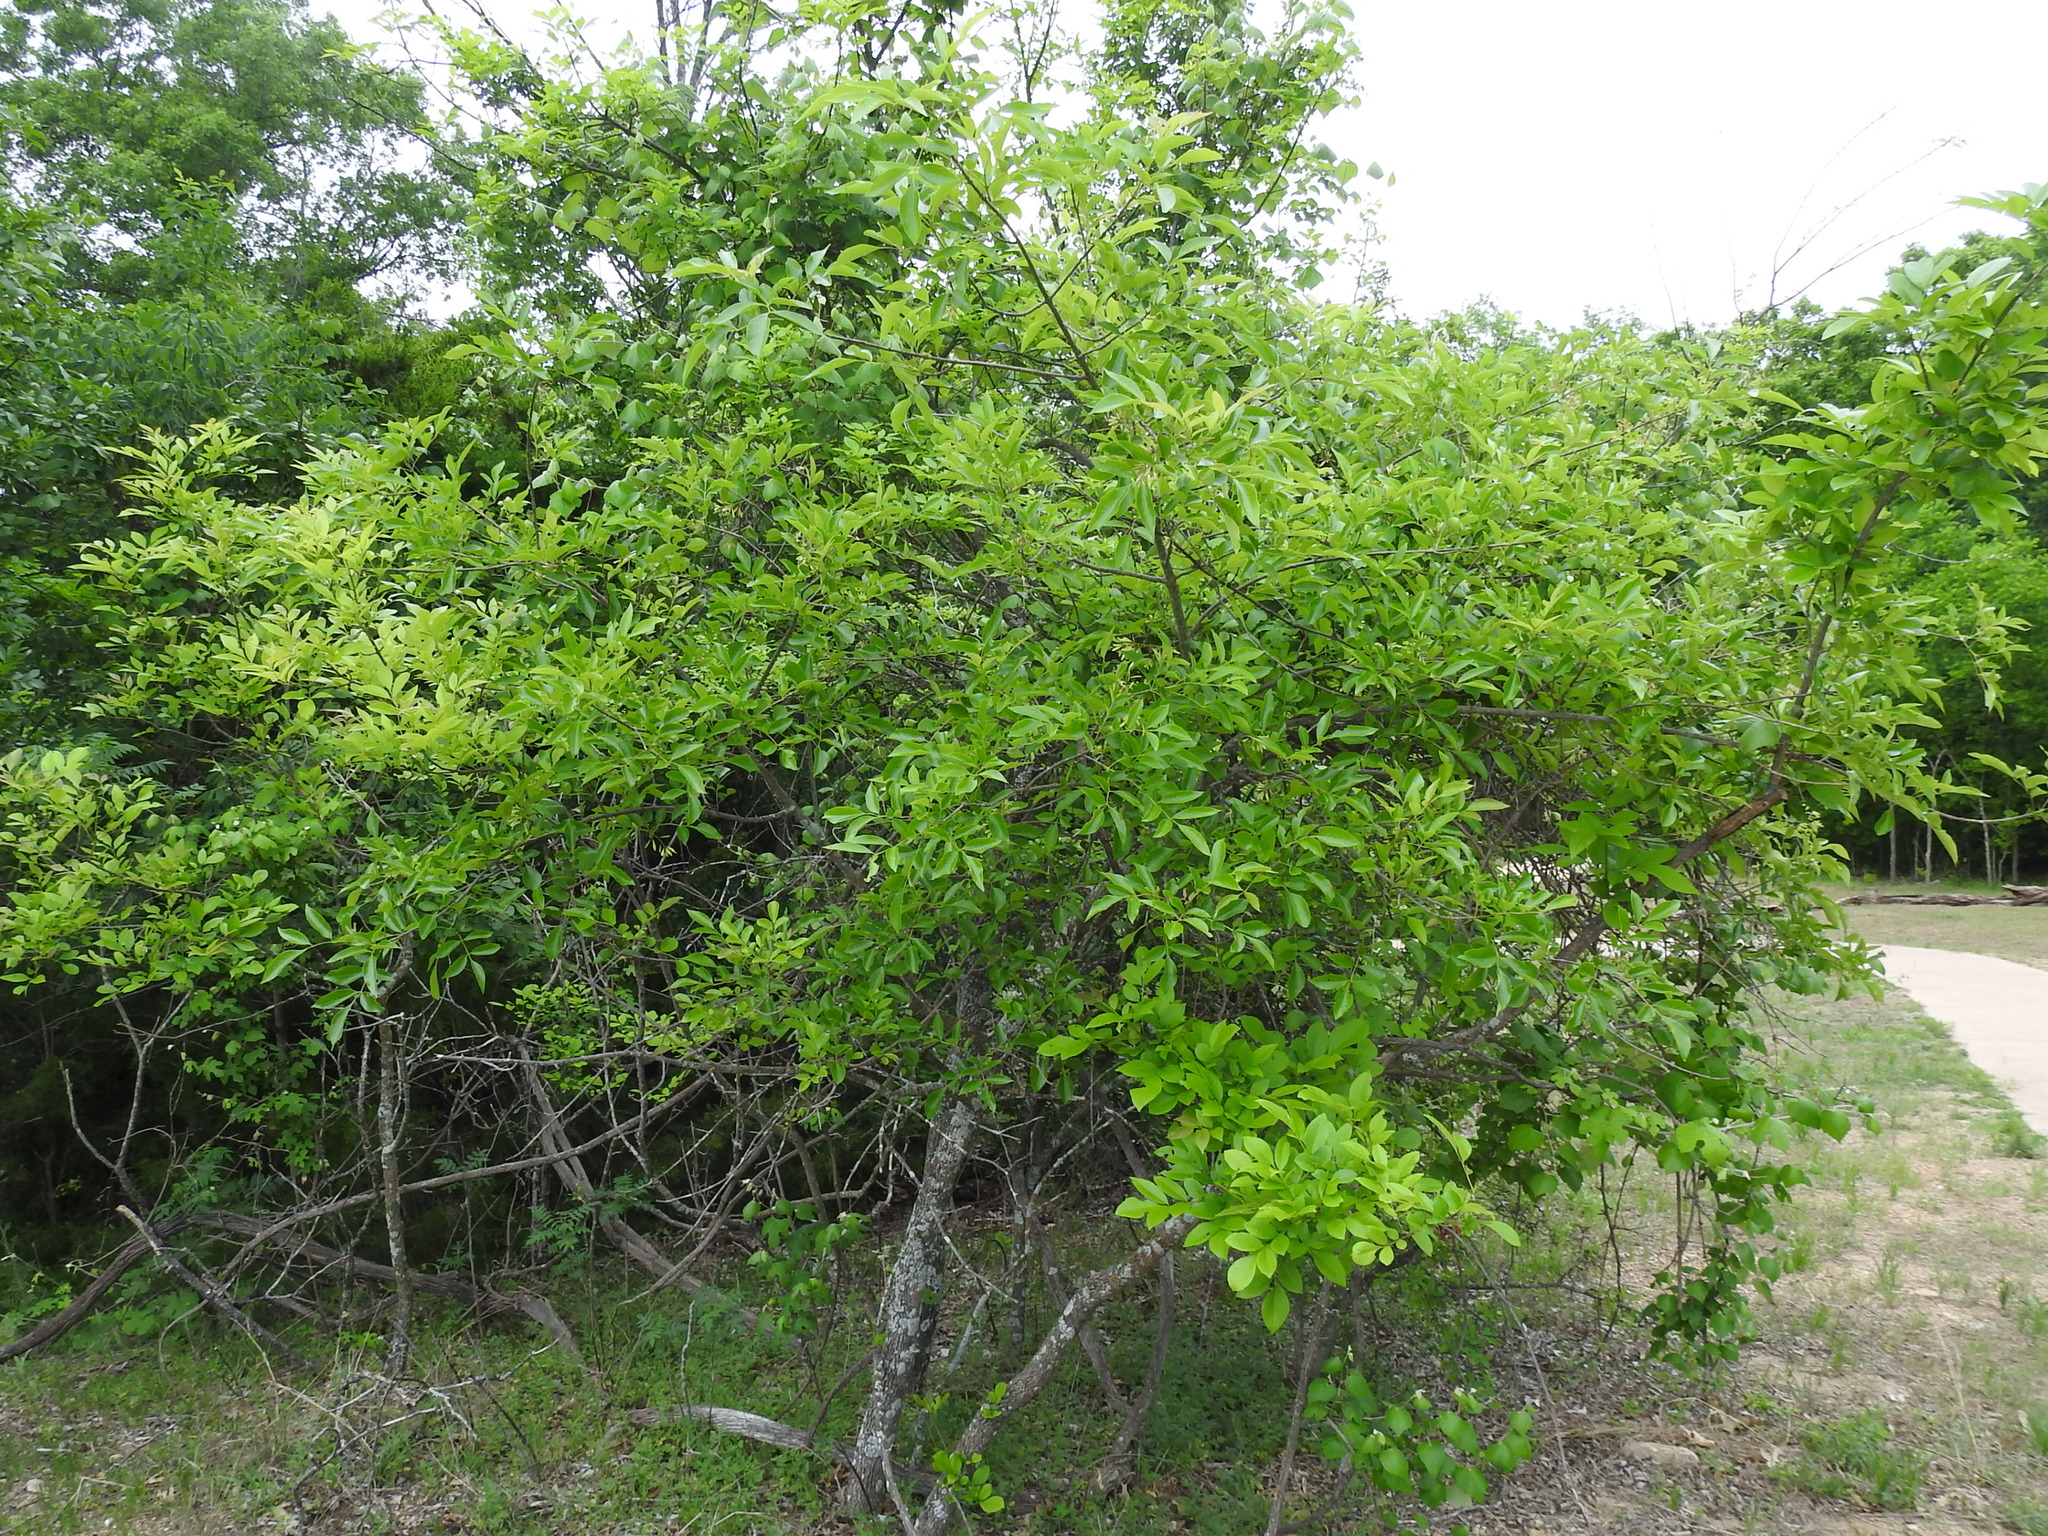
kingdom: Plantae
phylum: Tracheophyta
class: Magnoliopsida
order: Lamiales
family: Oleaceae
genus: Fraxinus
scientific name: Fraxinus albicans
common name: Texas ash
